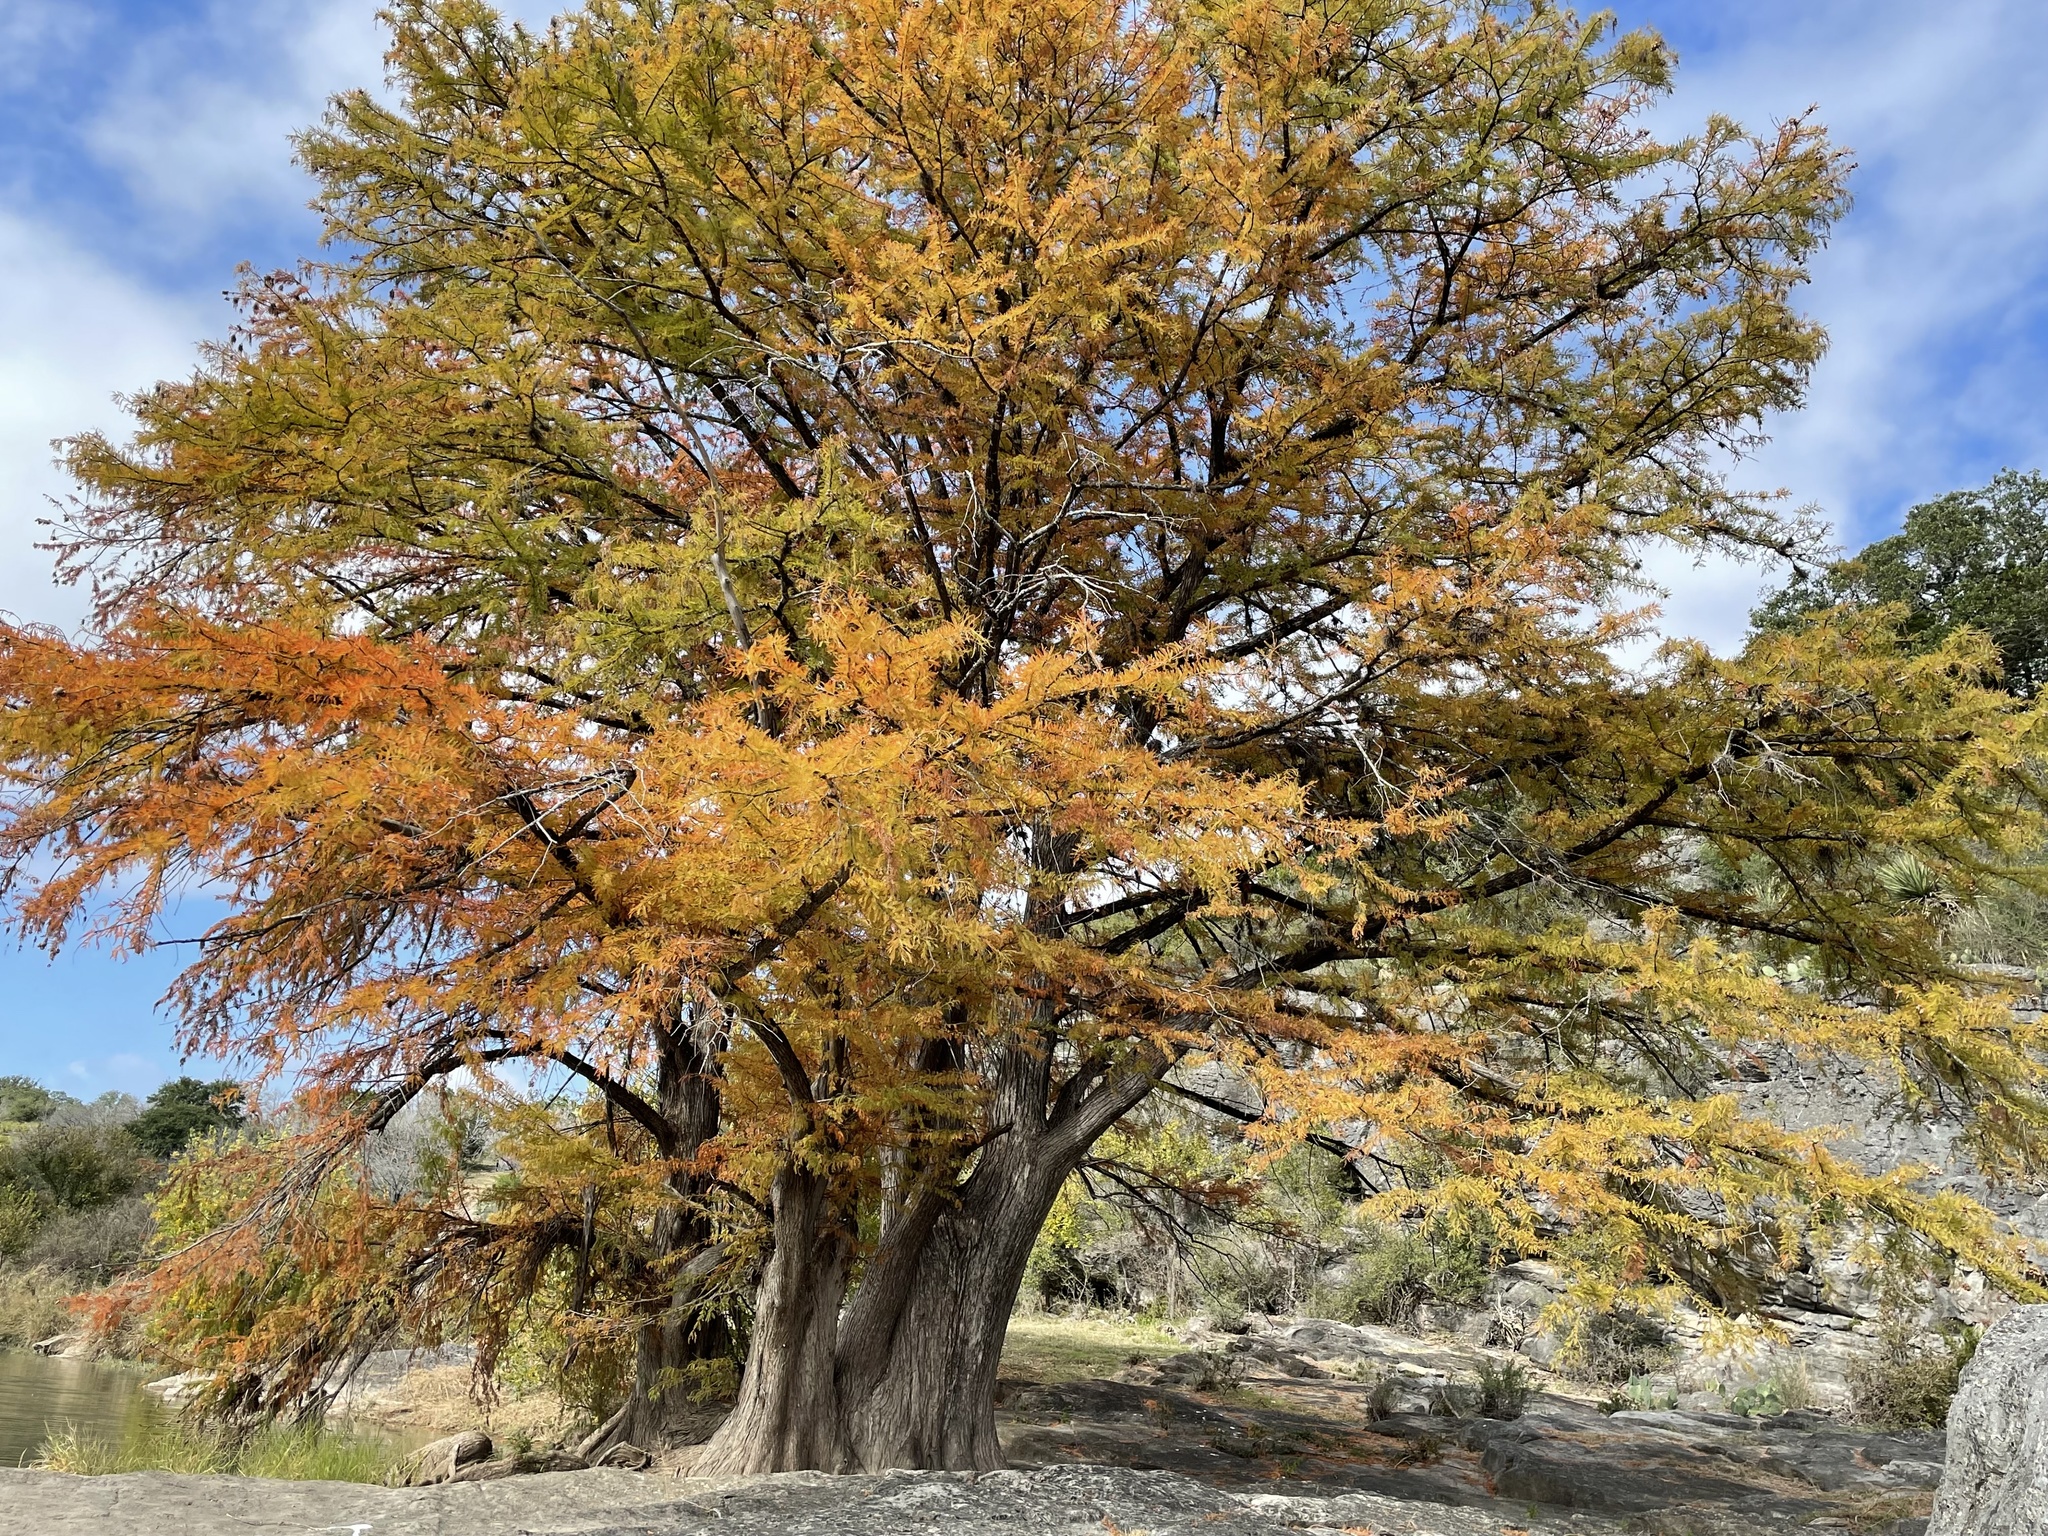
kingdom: Plantae
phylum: Tracheophyta
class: Pinopsida
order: Pinales
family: Cupressaceae
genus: Taxodium
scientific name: Taxodium distichum
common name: Bald cypress
